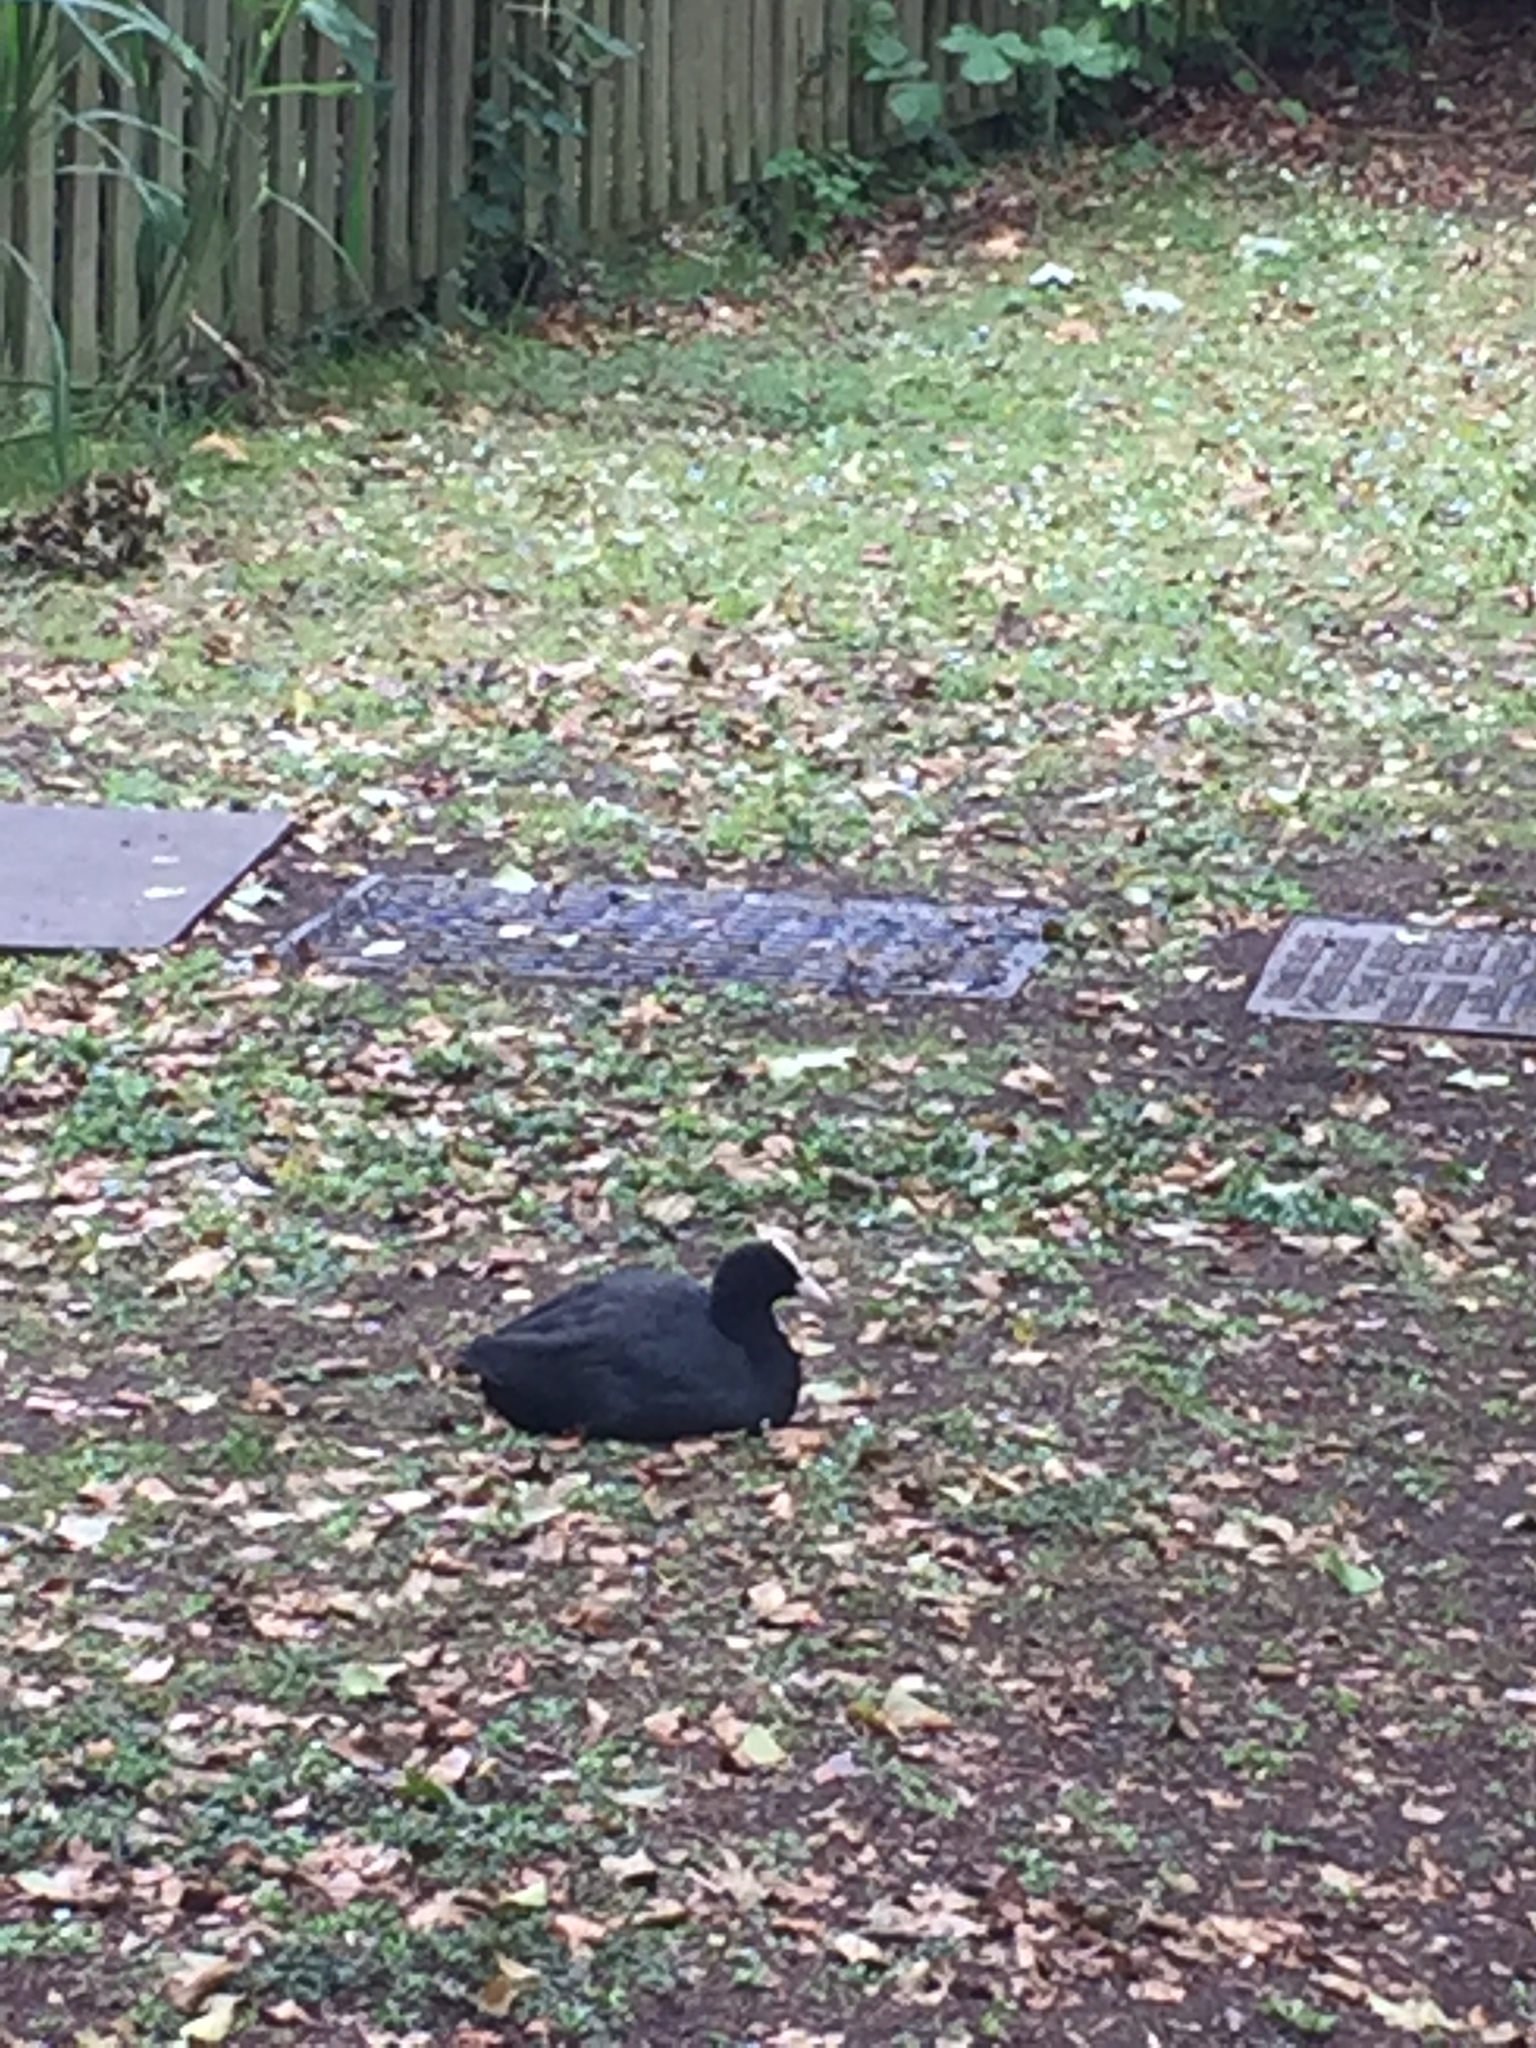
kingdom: Animalia
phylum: Chordata
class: Aves
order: Gruiformes
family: Rallidae
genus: Fulica
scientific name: Fulica atra
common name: Eurasian coot
